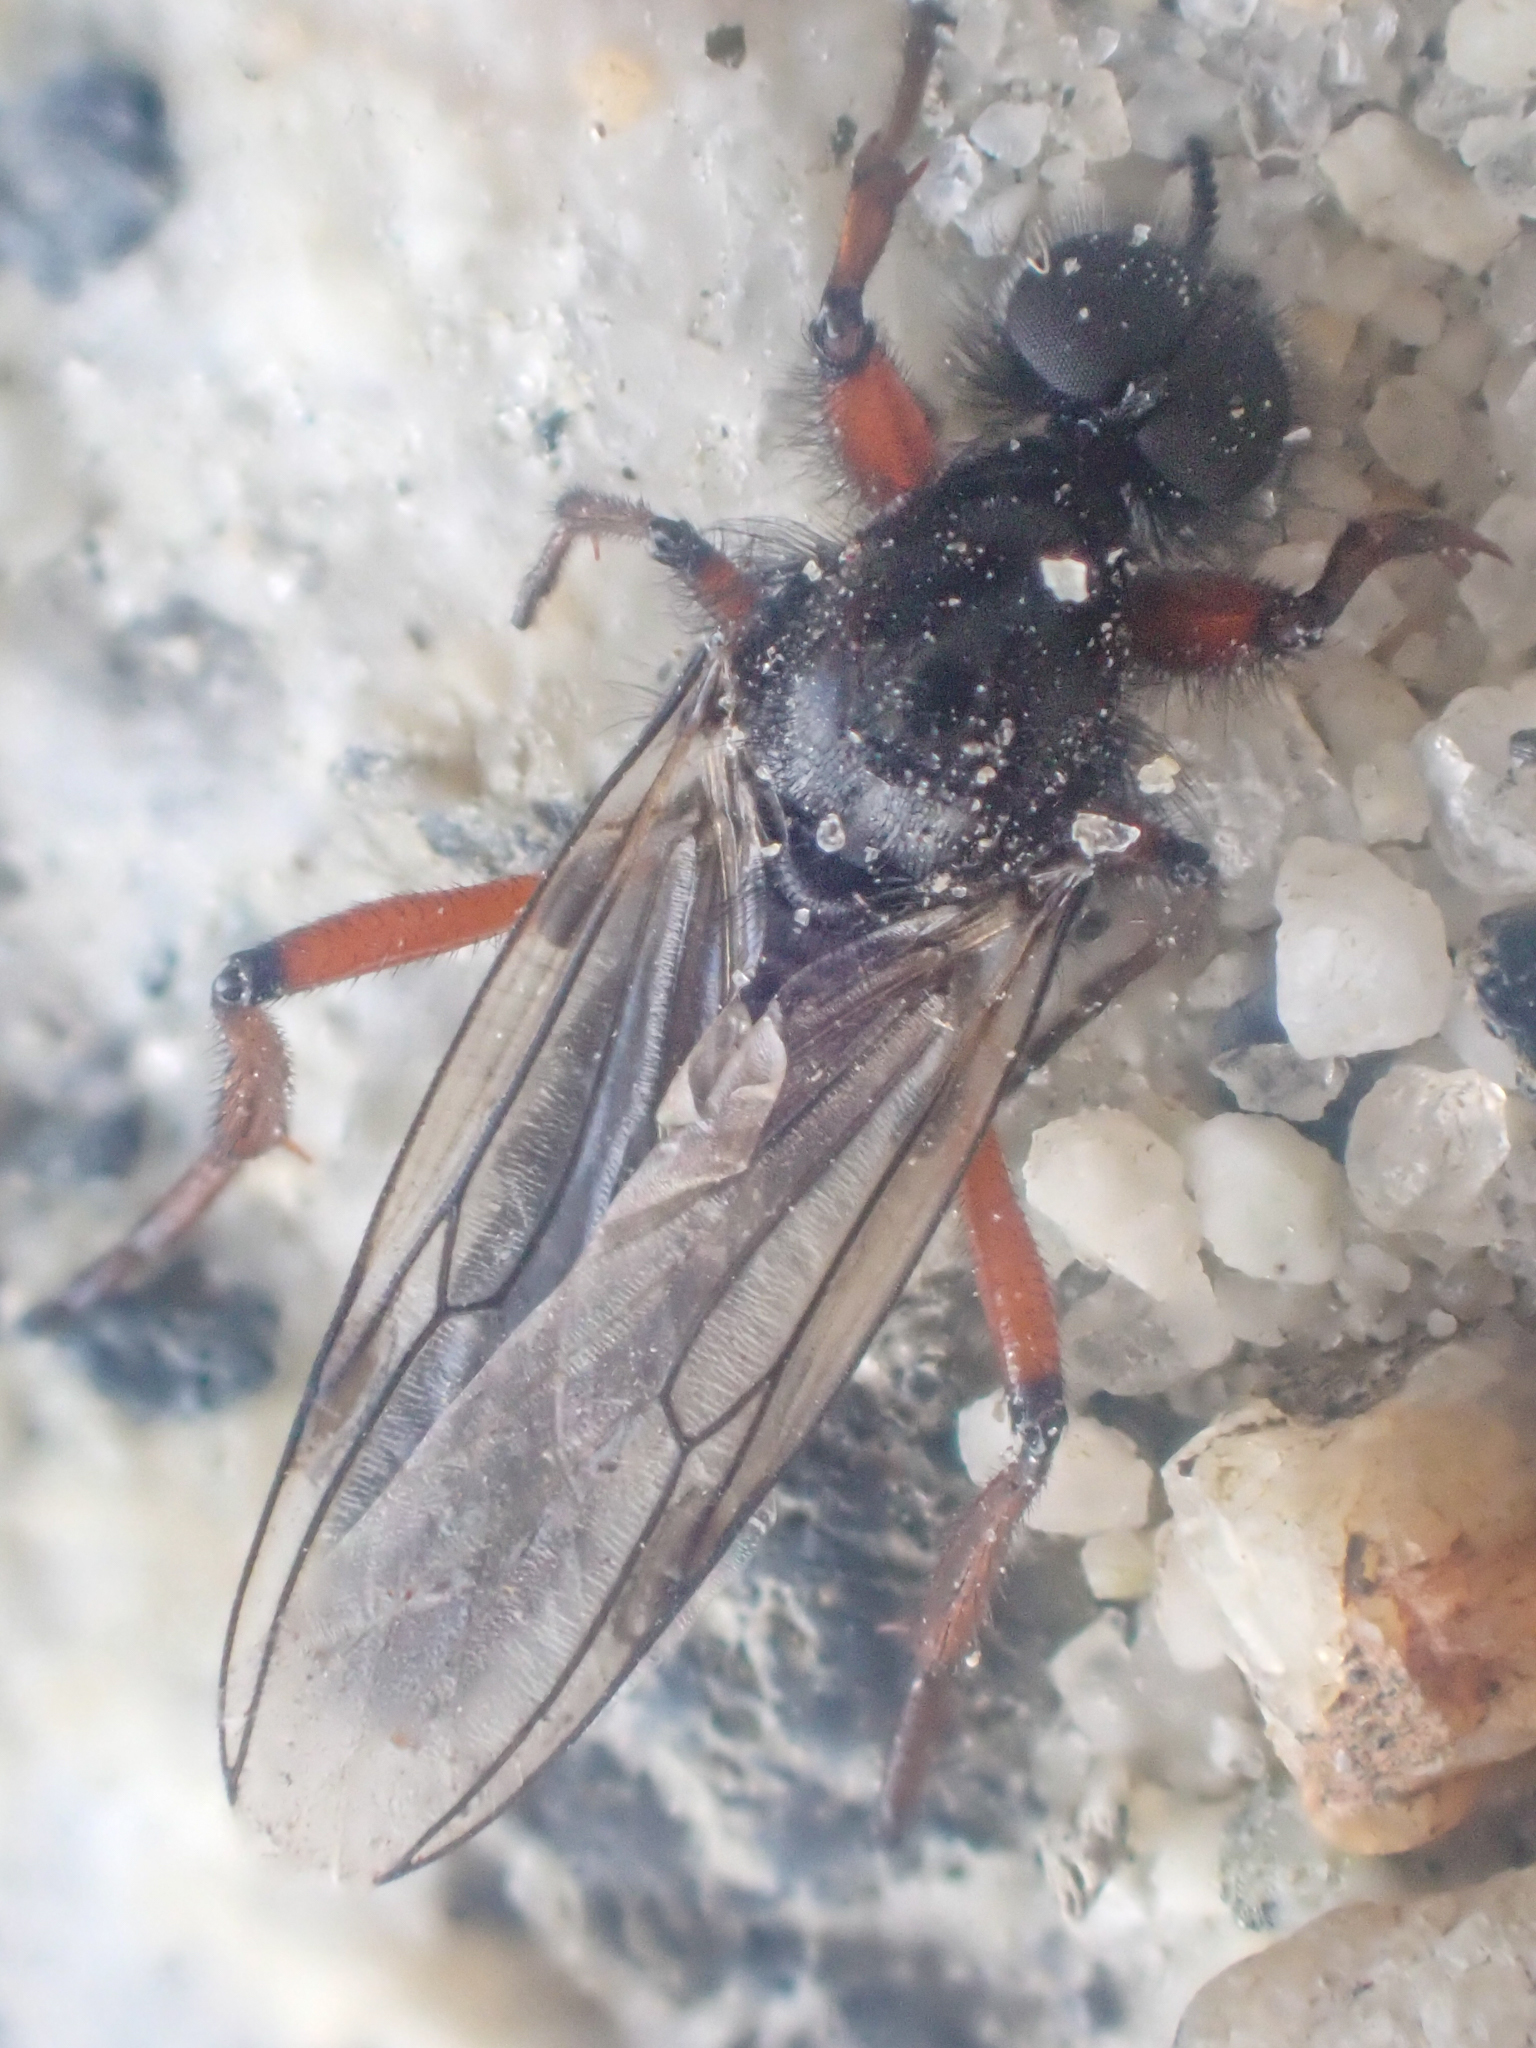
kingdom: Animalia
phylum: Arthropoda
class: Insecta
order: Diptera
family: Bibionidae
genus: Bibio
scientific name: Bibio nigritus
